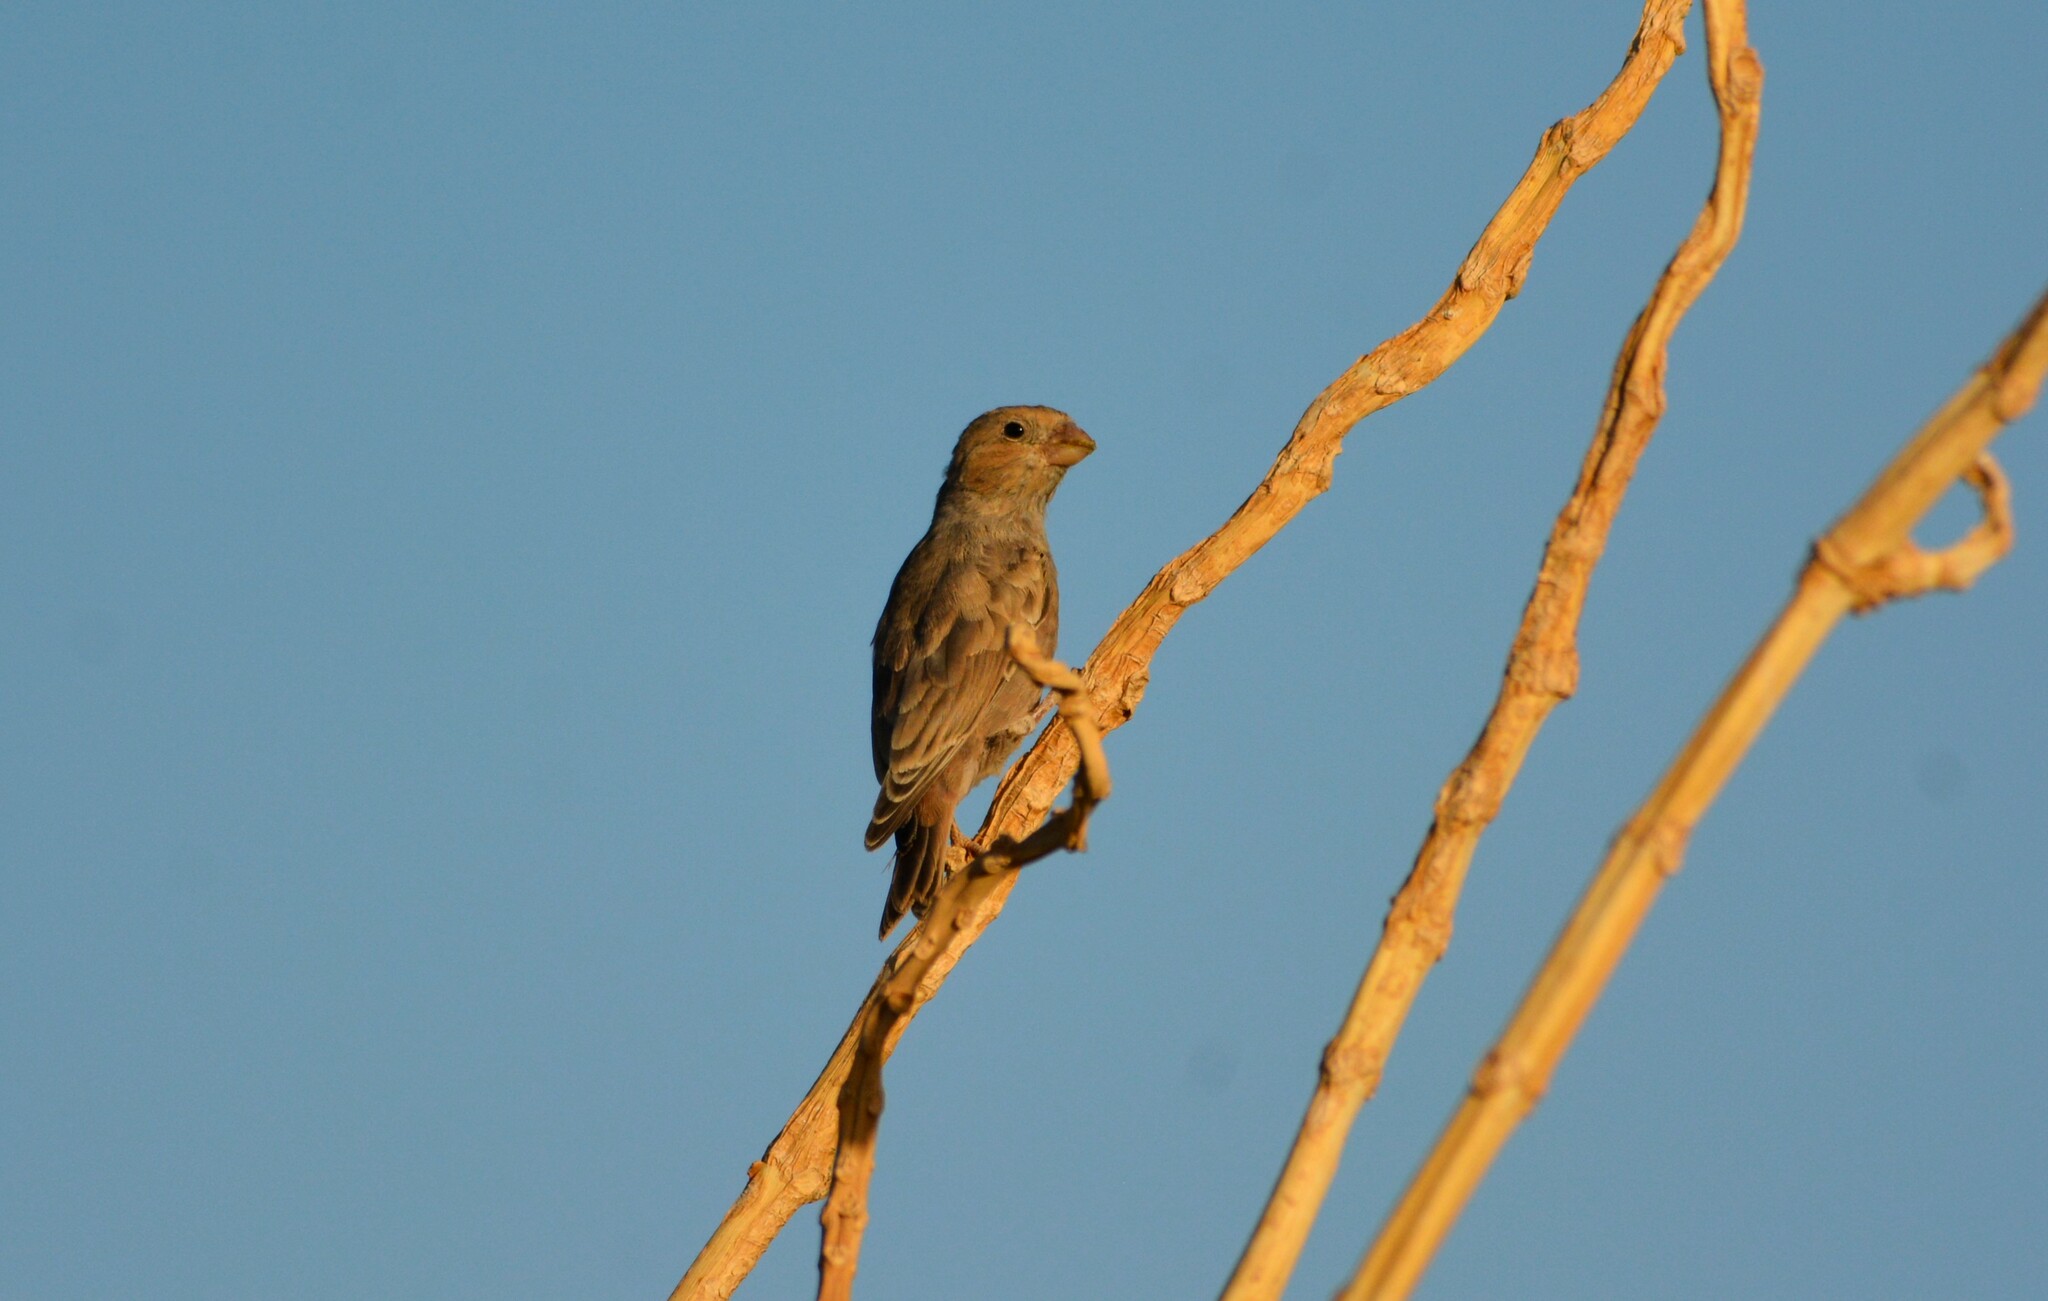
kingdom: Animalia
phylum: Chordata
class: Aves
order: Passeriformes
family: Passeridae
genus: Passer
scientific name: Passer luteus
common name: Sudan golden sparrow
